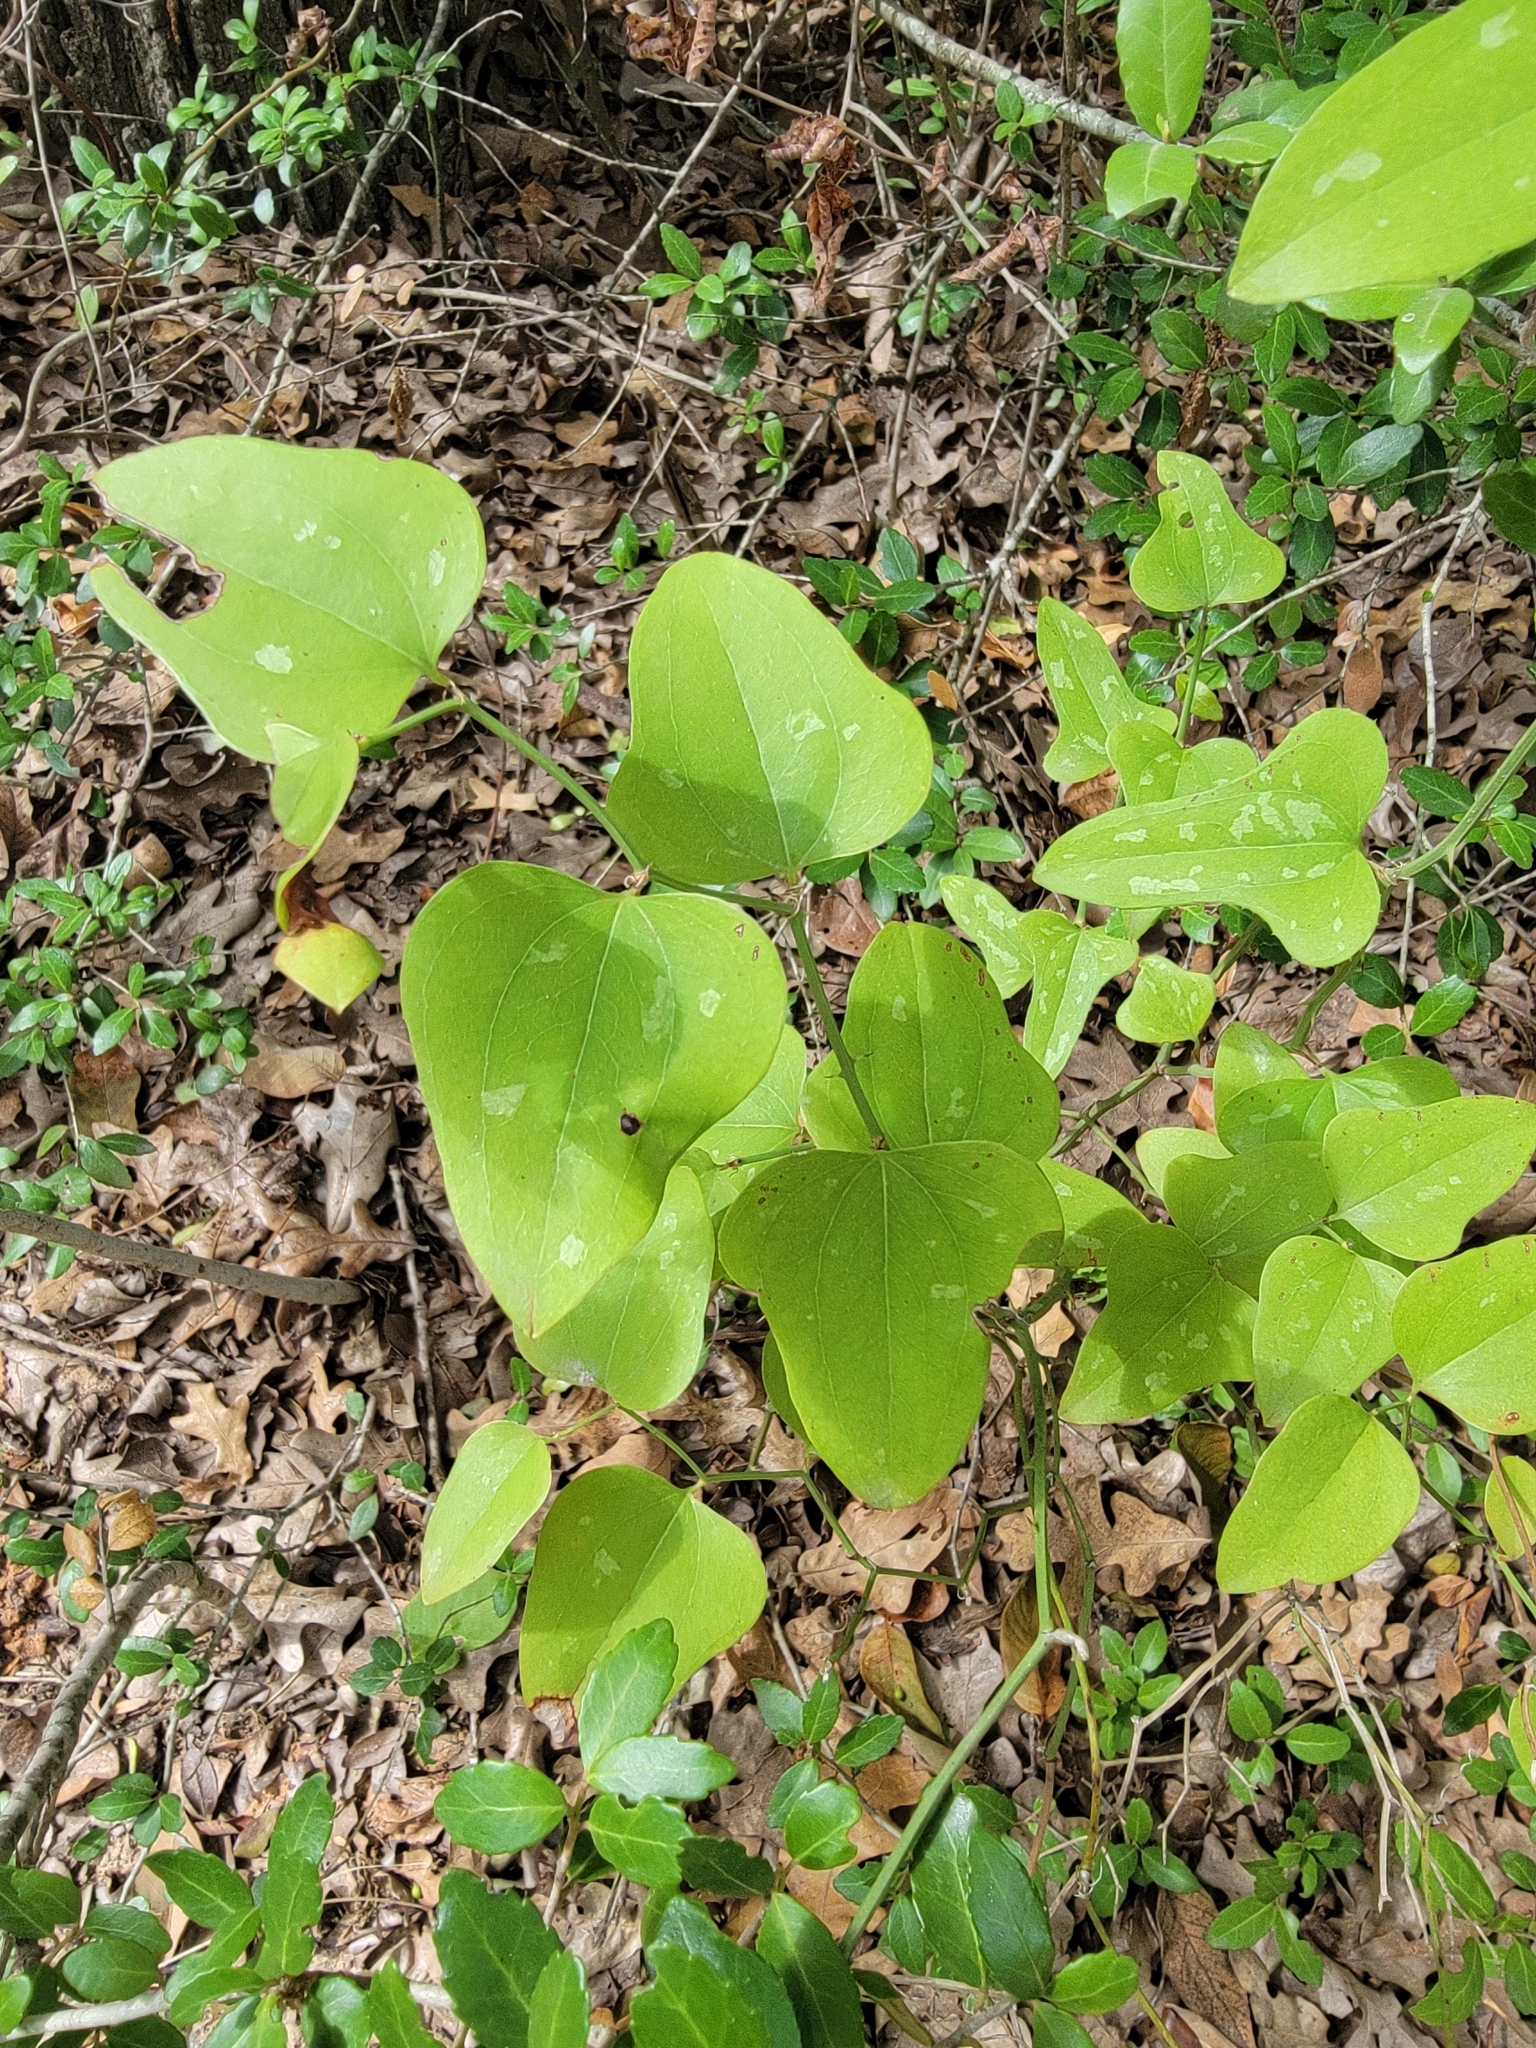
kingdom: Plantae
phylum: Tracheophyta
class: Liliopsida
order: Liliales
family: Smilacaceae
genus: Smilax
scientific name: Smilax bona-nox
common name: Catbrier
